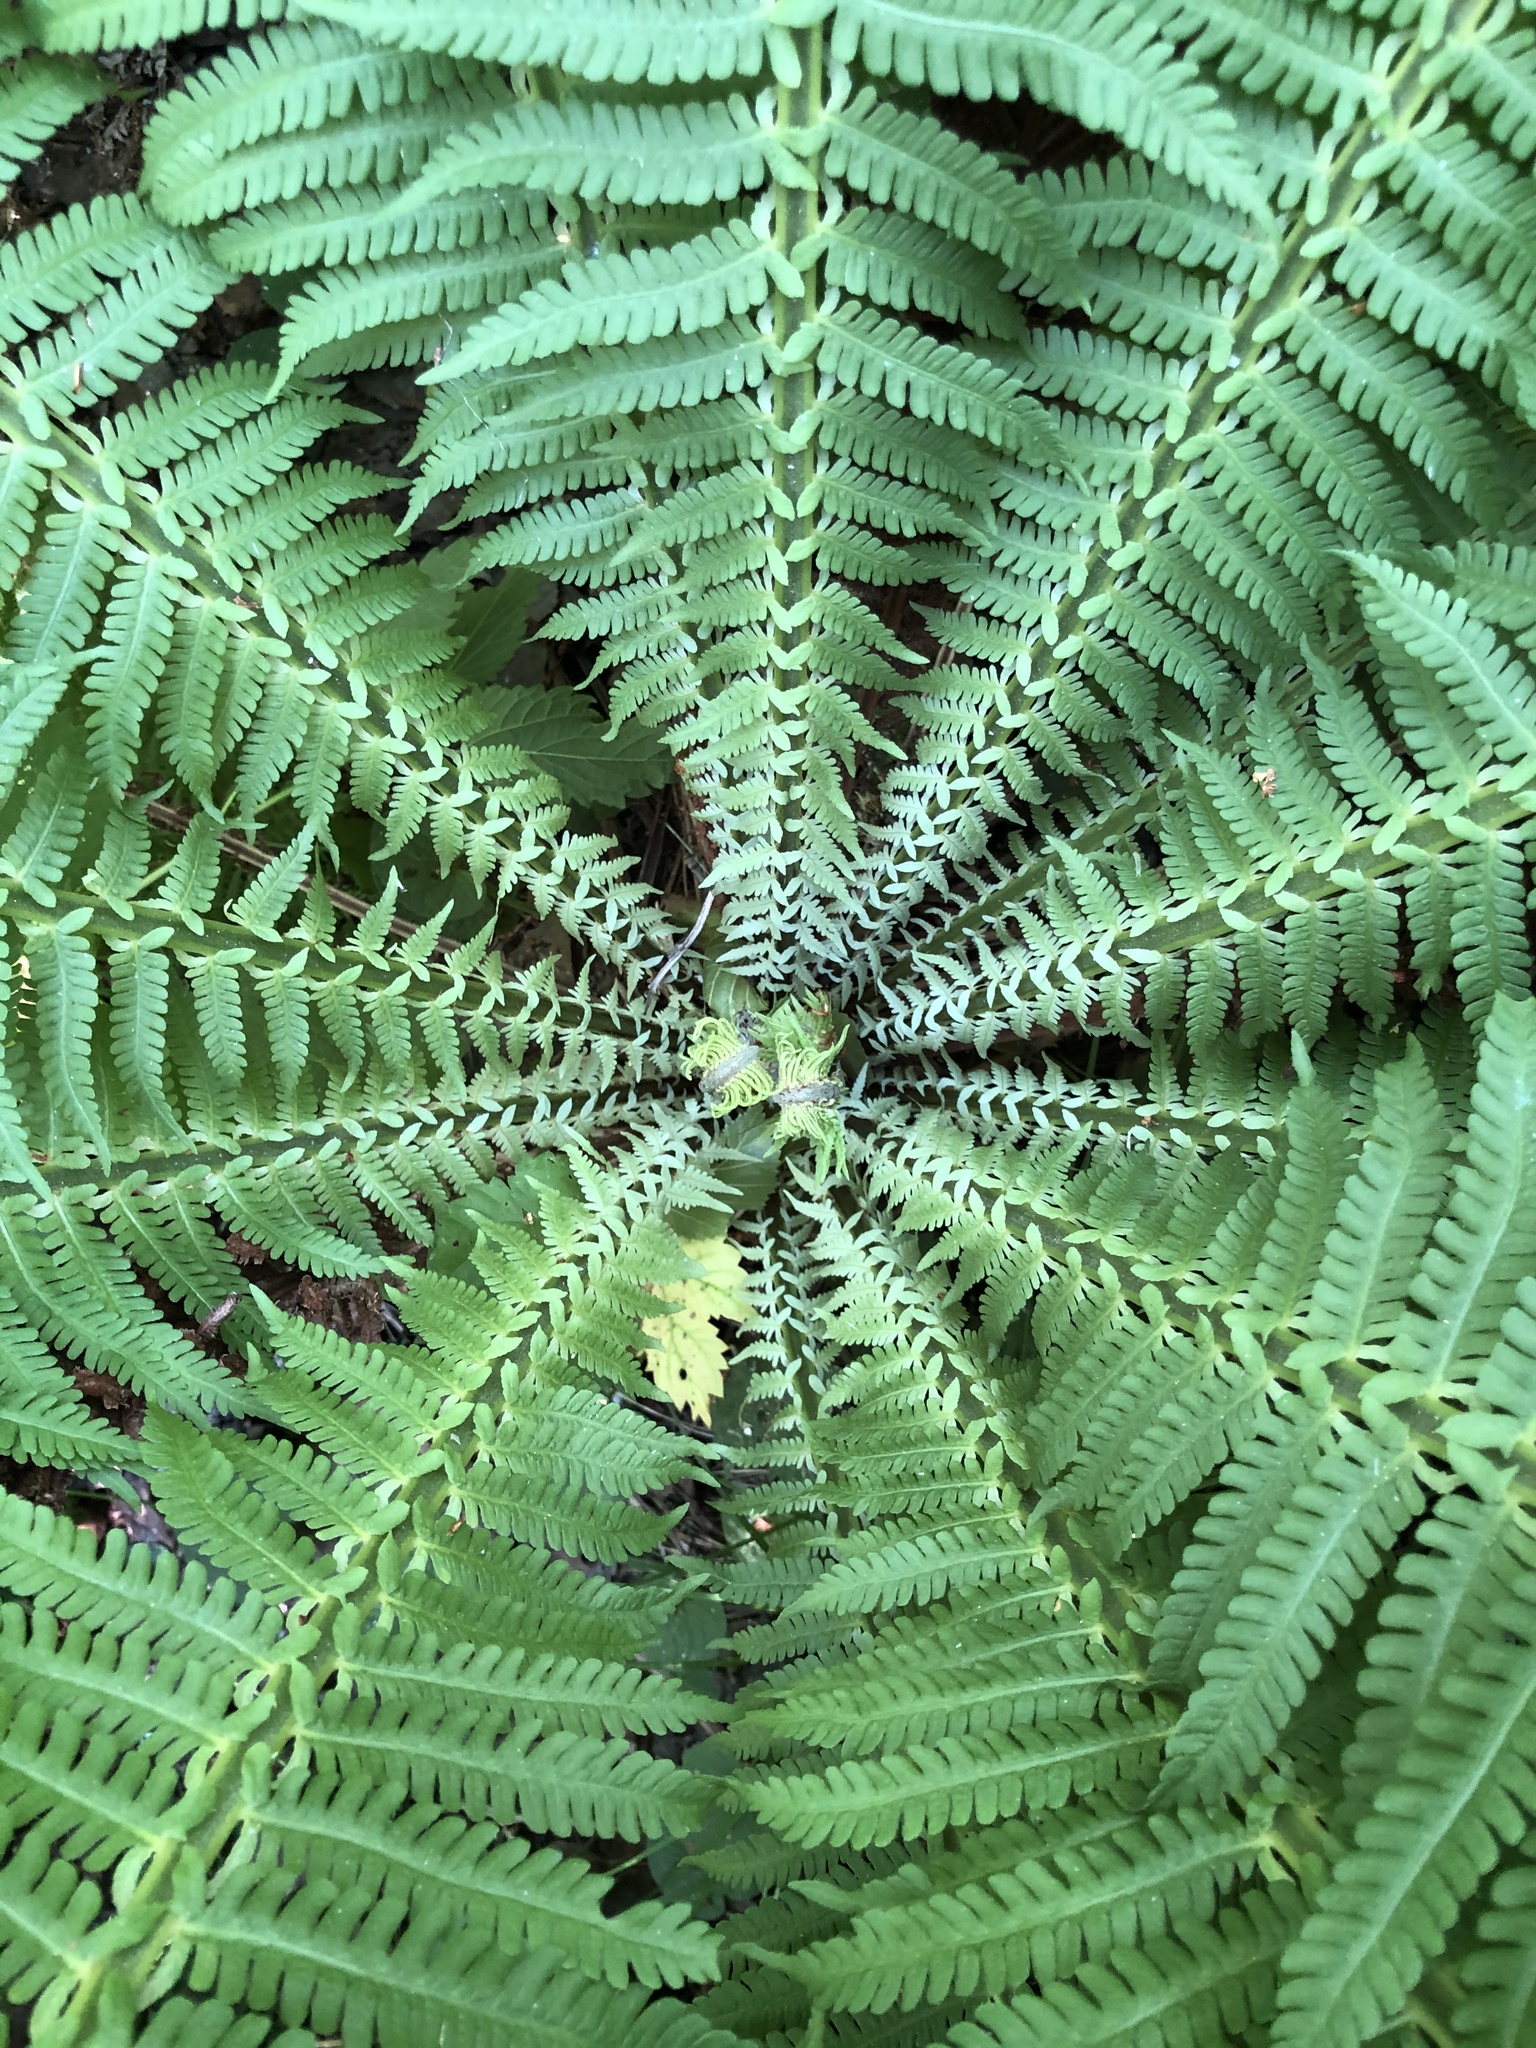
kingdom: Plantae
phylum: Tracheophyta
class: Polypodiopsida
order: Polypodiales
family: Onocleaceae
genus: Matteuccia
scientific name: Matteuccia struthiopteris
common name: Ostrich fern
